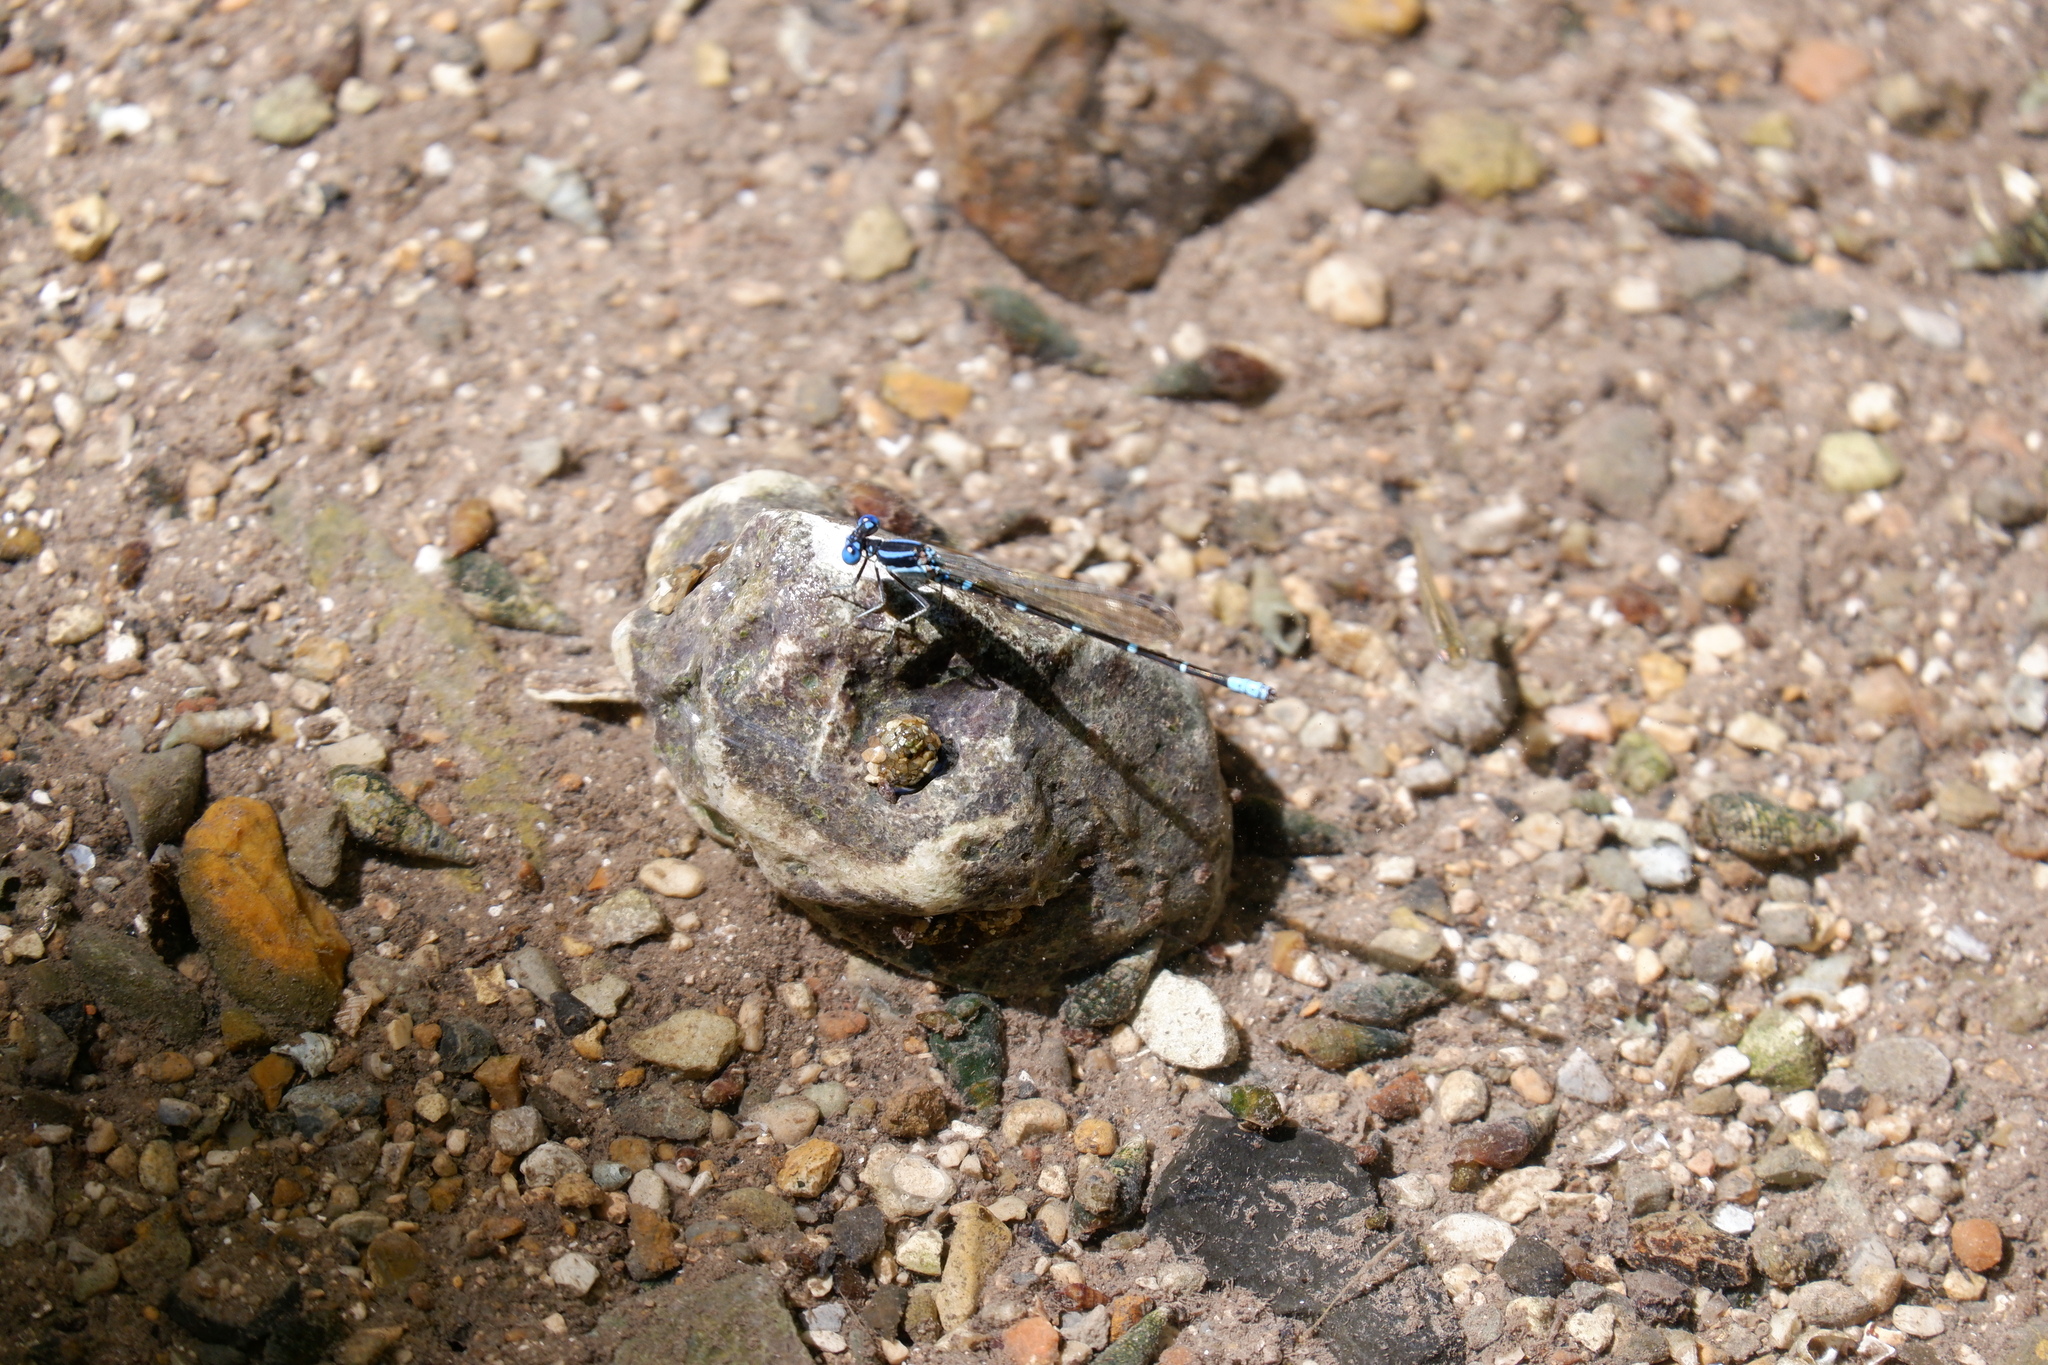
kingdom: Animalia
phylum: Arthropoda
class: Insecta
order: Odonata
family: Coenagrionidae
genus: Argia
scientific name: Argia sedula
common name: Blue-ringed dancer
